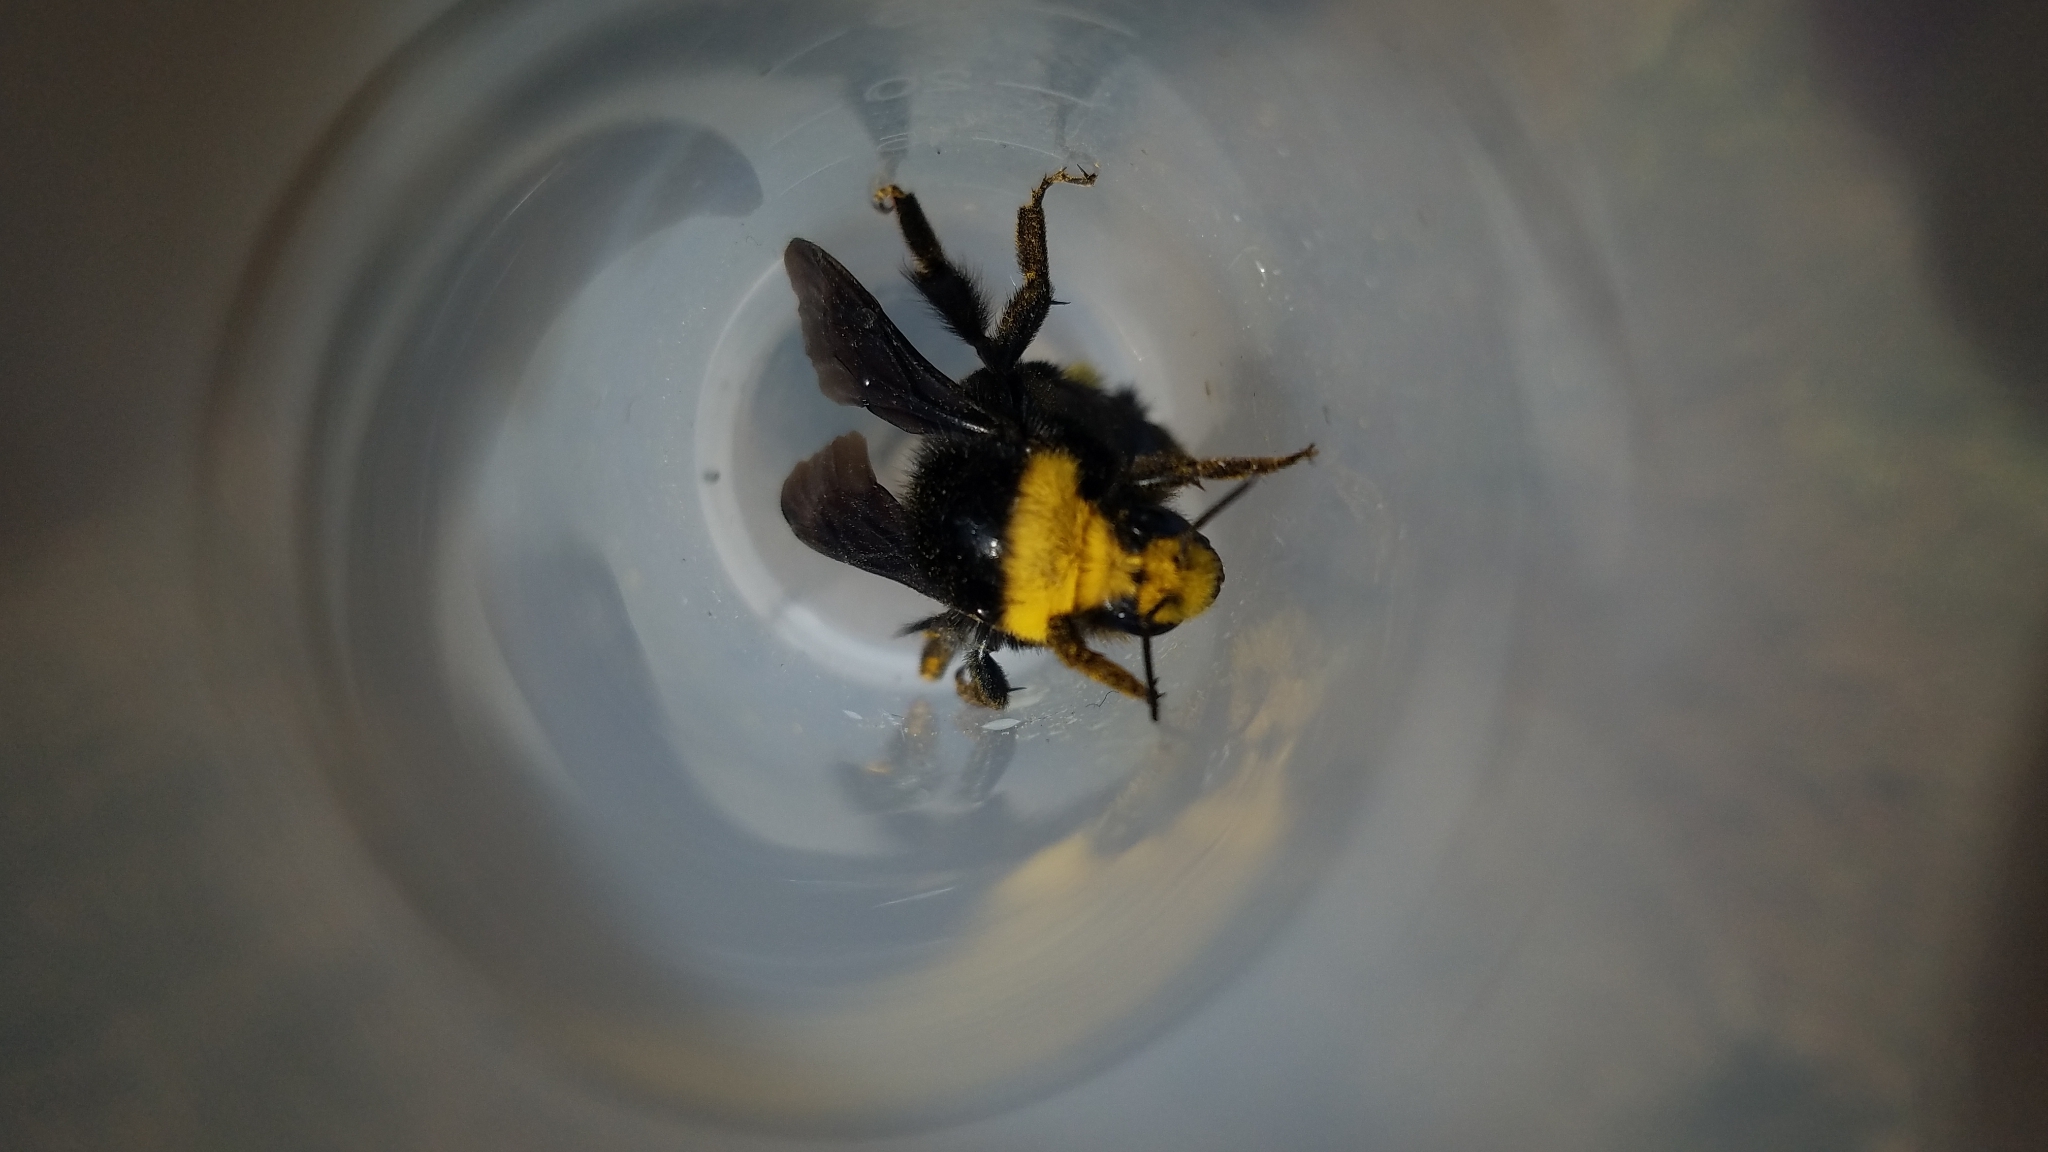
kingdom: Animalia
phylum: Arthropoda
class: Insecta
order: Hymenoptera
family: Apidae
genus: Bombus
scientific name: Bombus vosnesenskii
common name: Vosnesensky bumble bee
